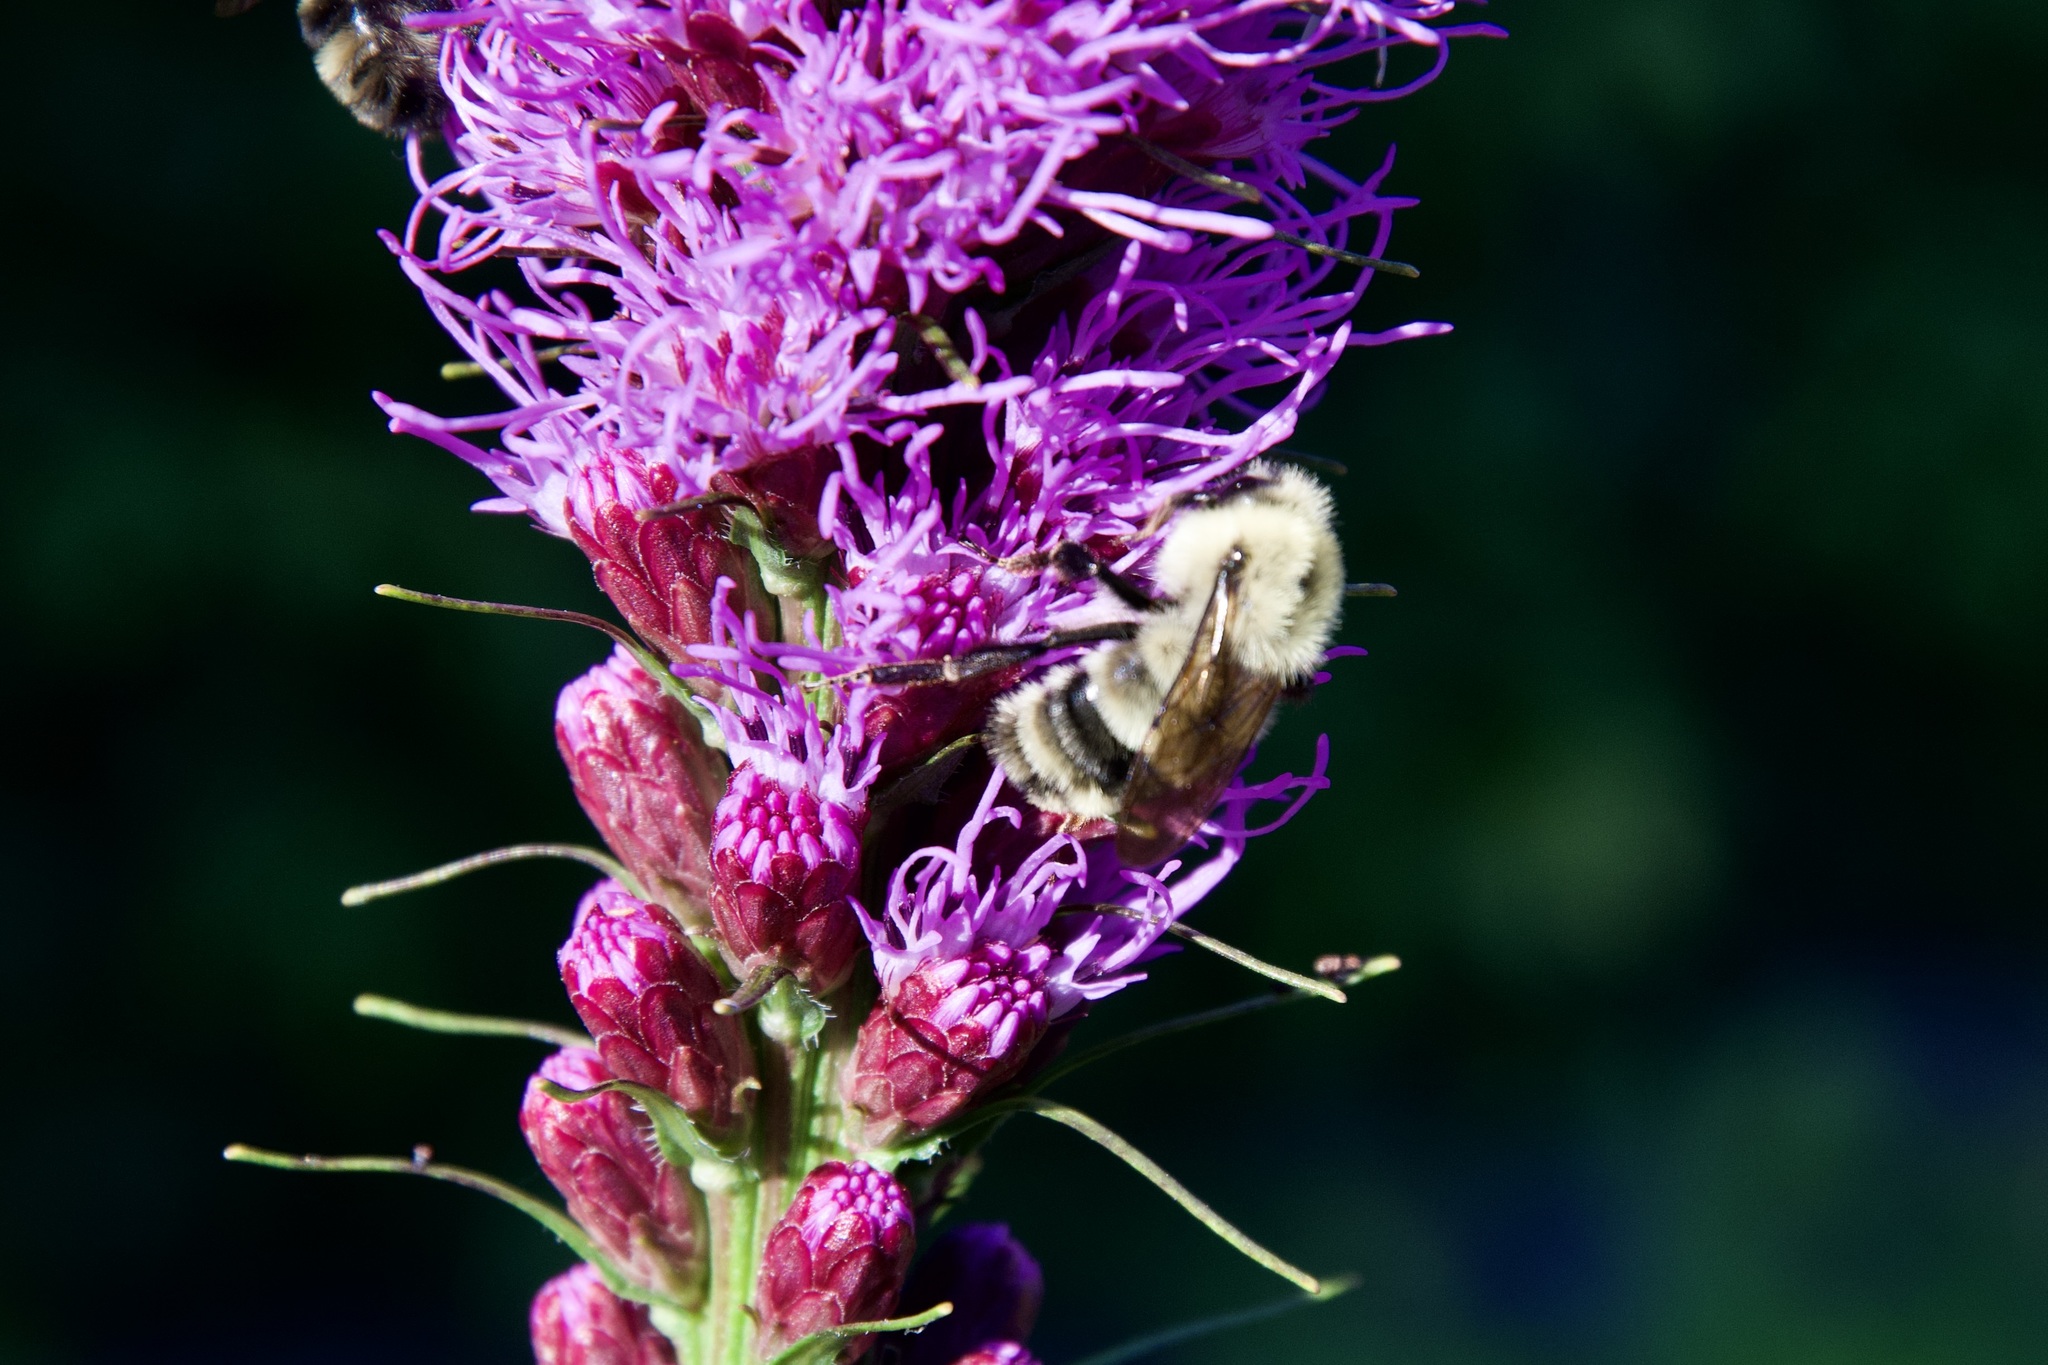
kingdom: Animalia
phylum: Arthropoda
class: Insecta
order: Hymenoptera
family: Apidae
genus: Bombus
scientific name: Bombus bimaculatus
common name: Two-spotted bumble bee
